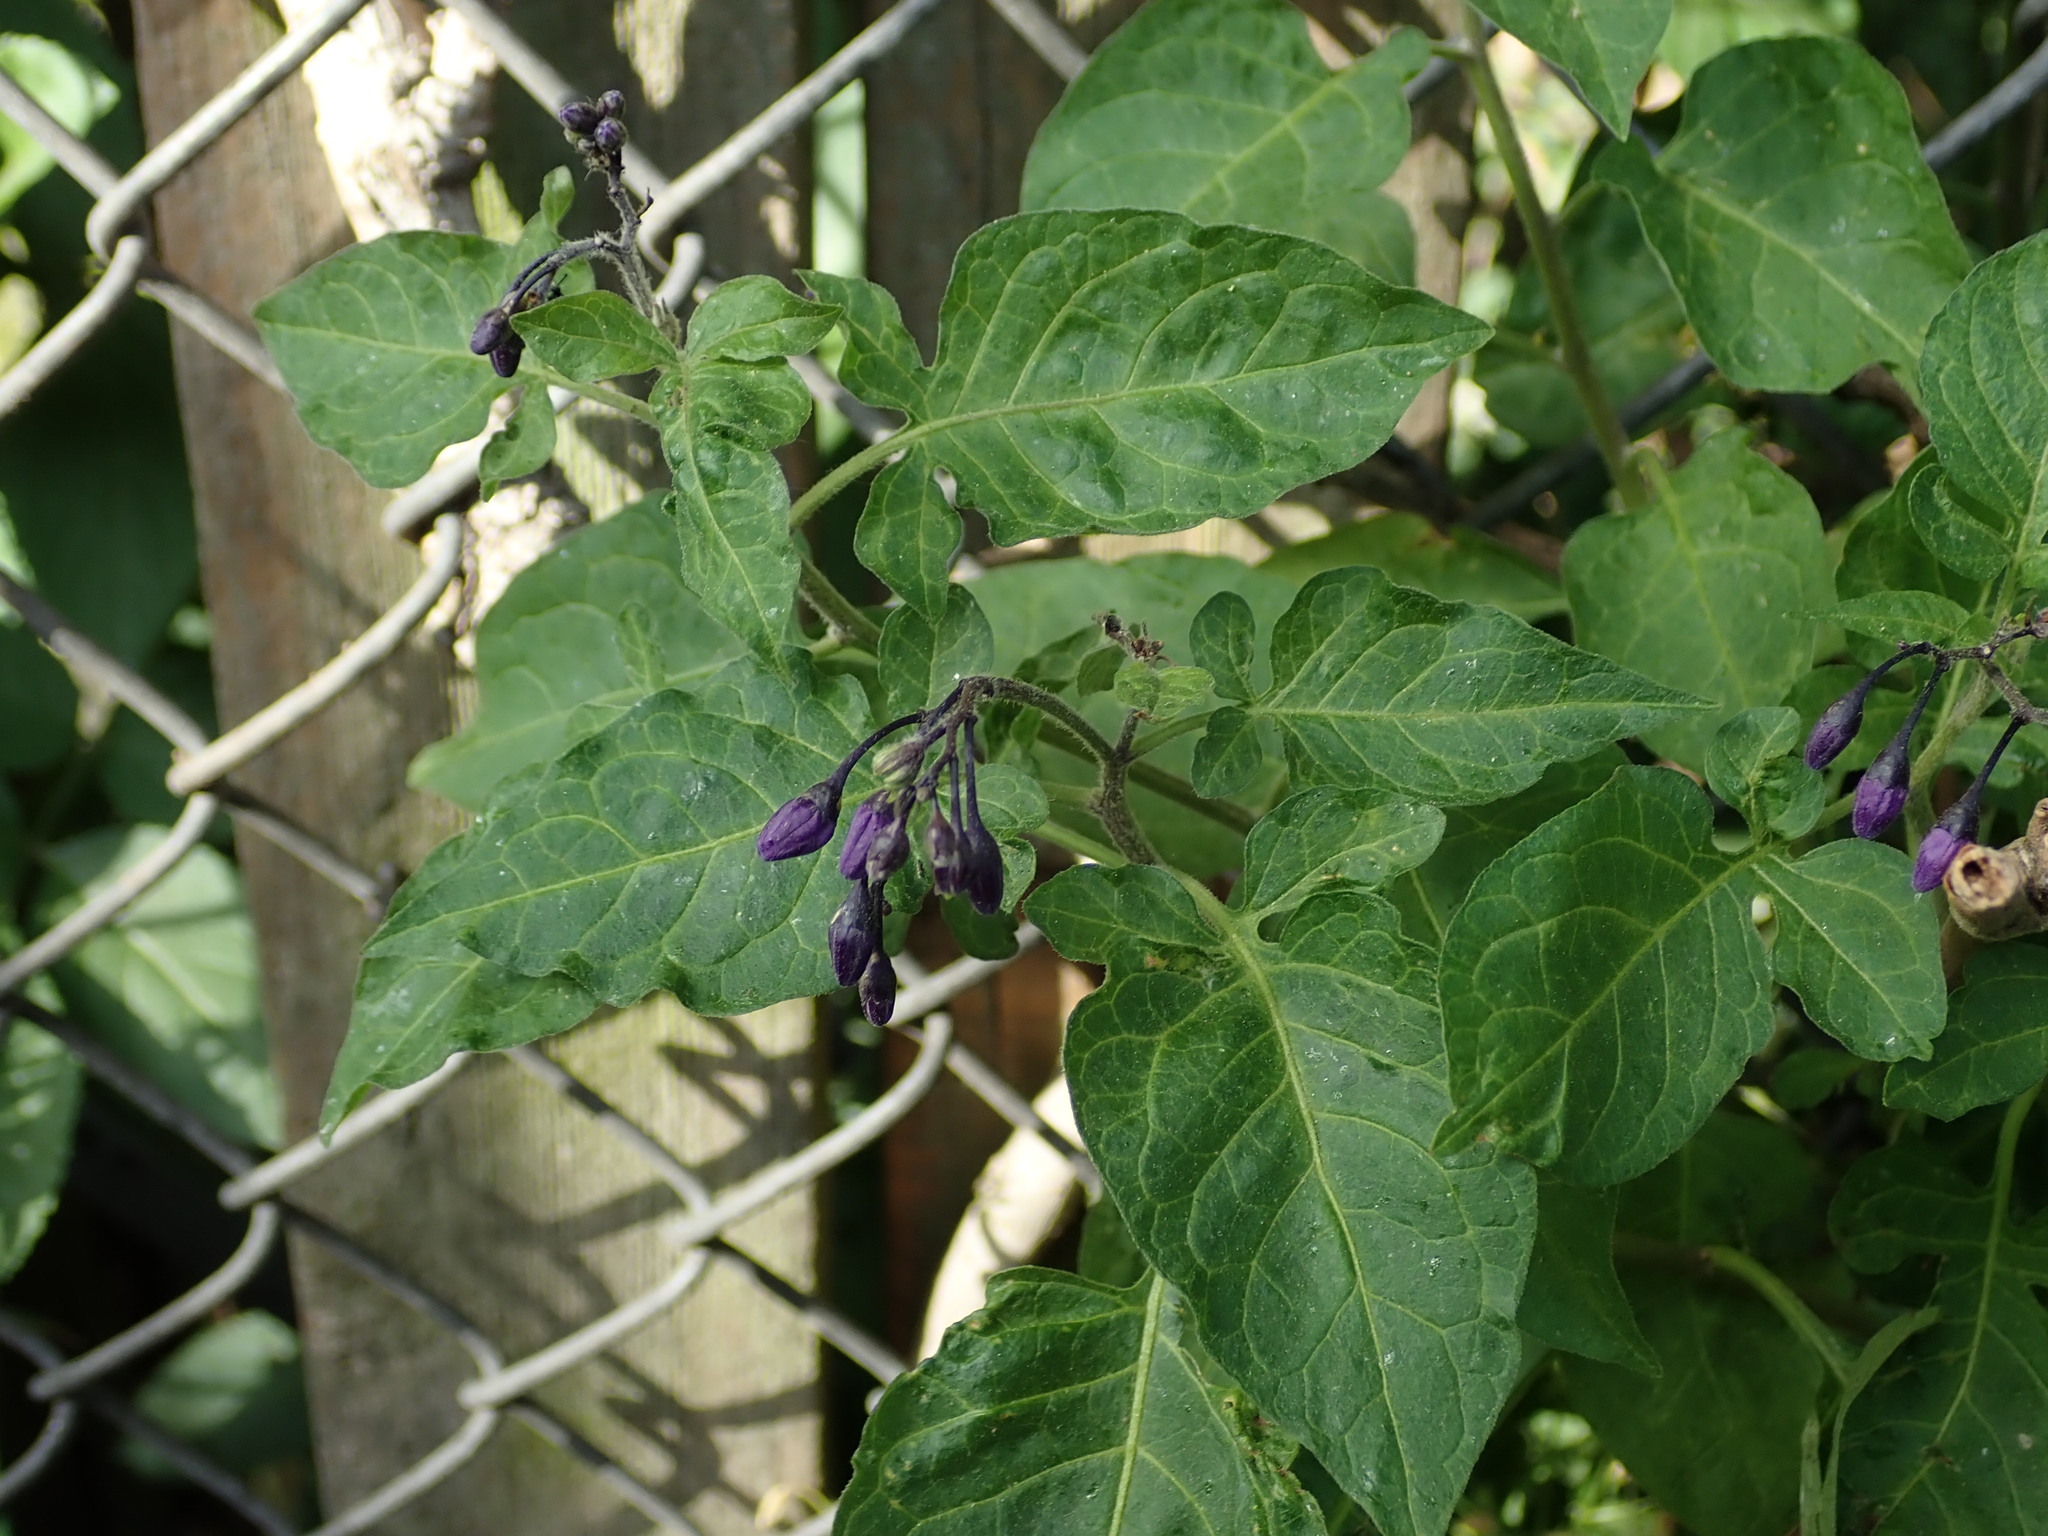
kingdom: Plantae
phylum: Tracheophyta
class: Magnoliopsida
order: Solanales
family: Solanaceae
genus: Solanum
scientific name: Solanum dulcamara
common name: Climbing nightshade
